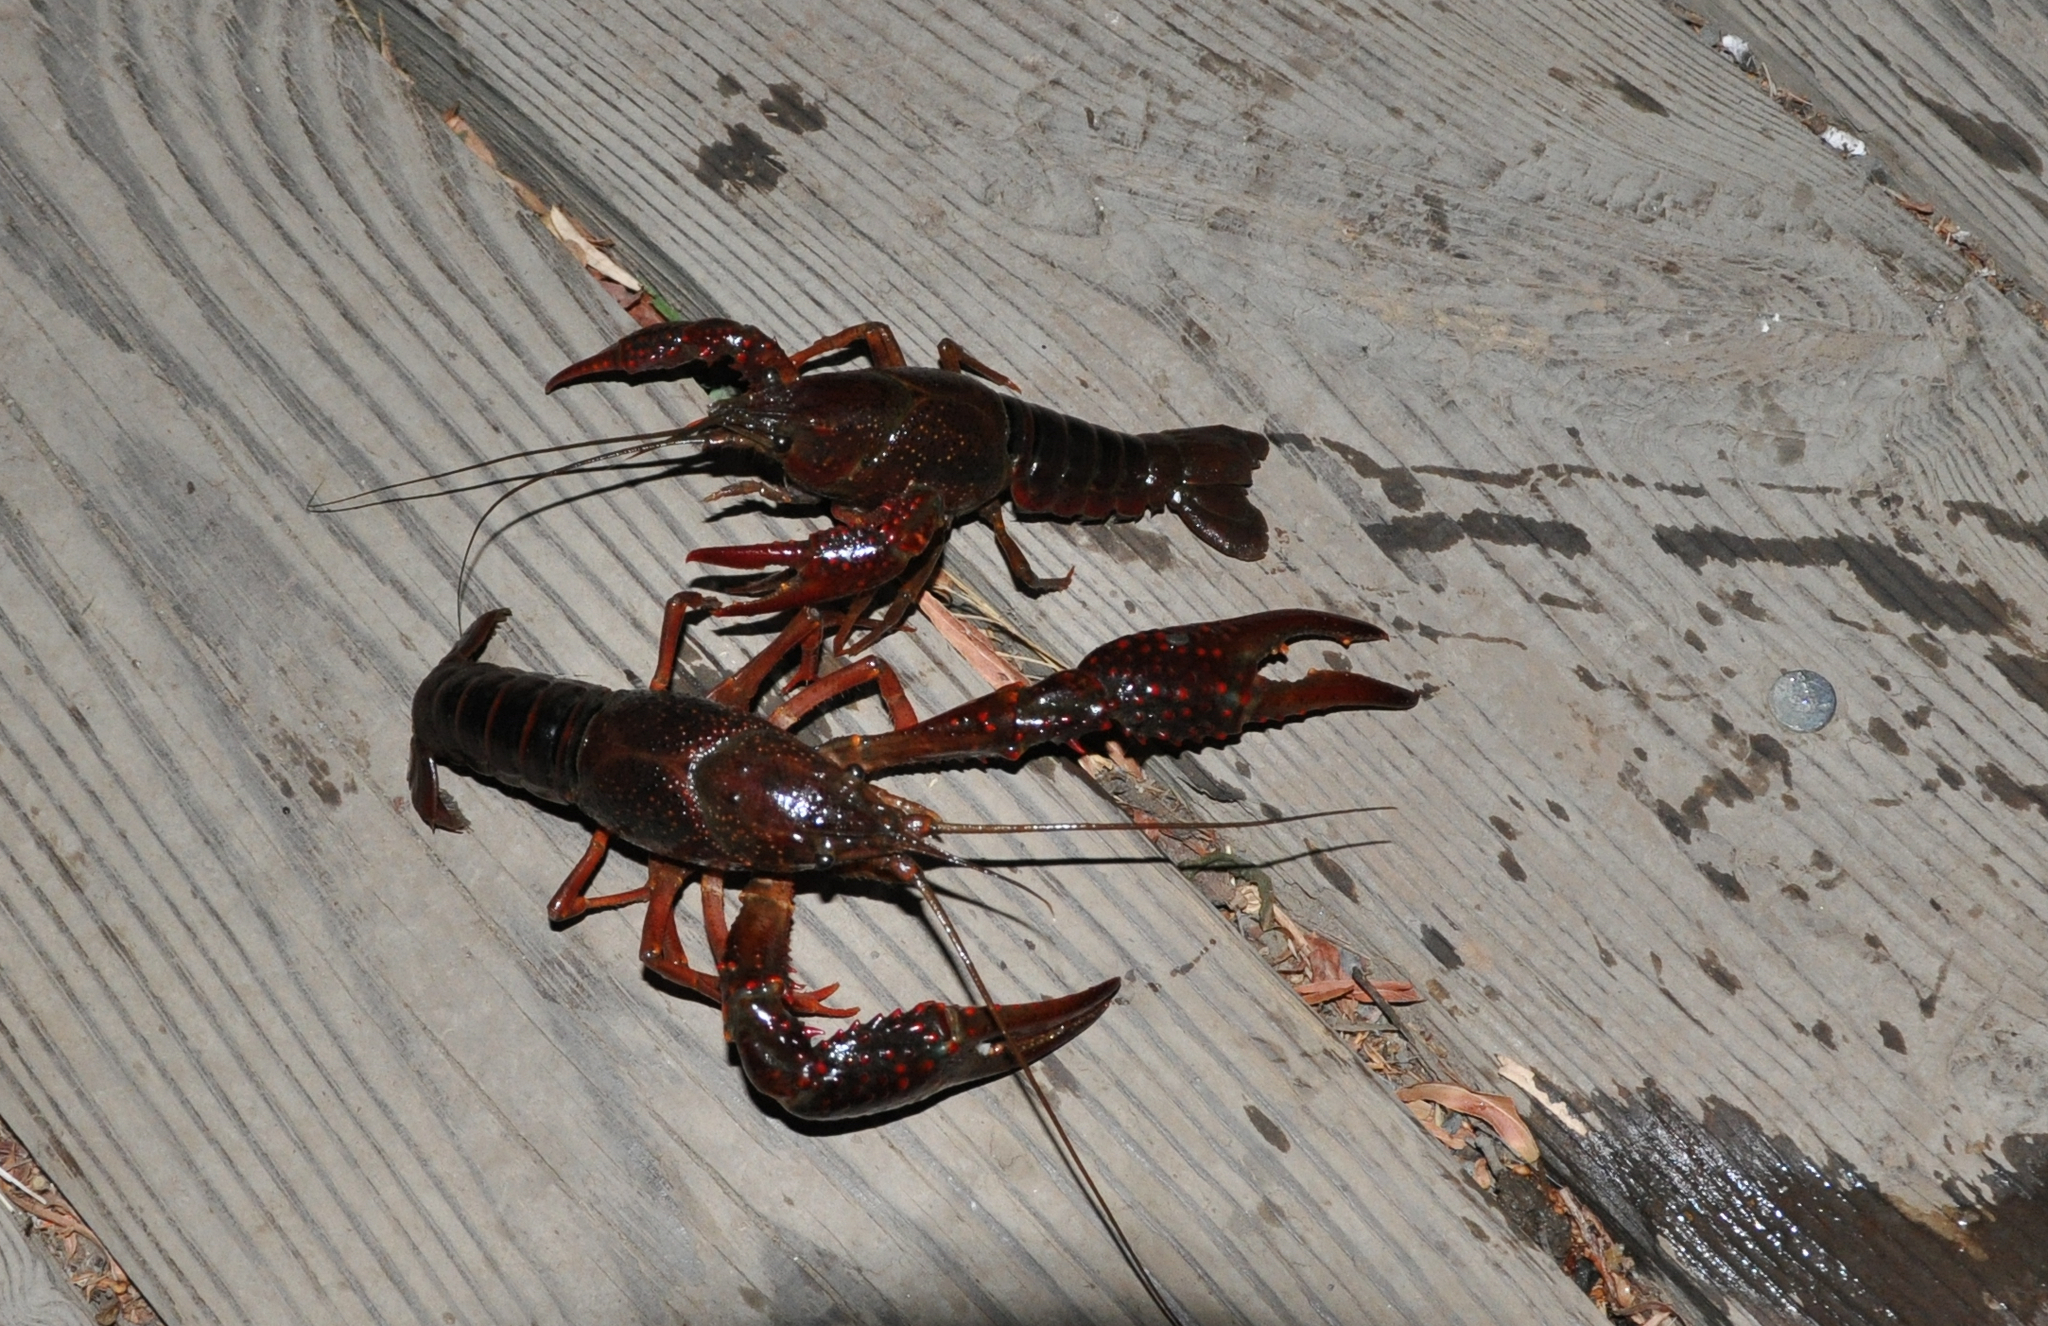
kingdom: Animalia
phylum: Arthropoda
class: Malacostraca
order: Decapoda
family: Cambaridae
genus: Procambarus
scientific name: Procambarus clarkii
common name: Red swamp crayfish
